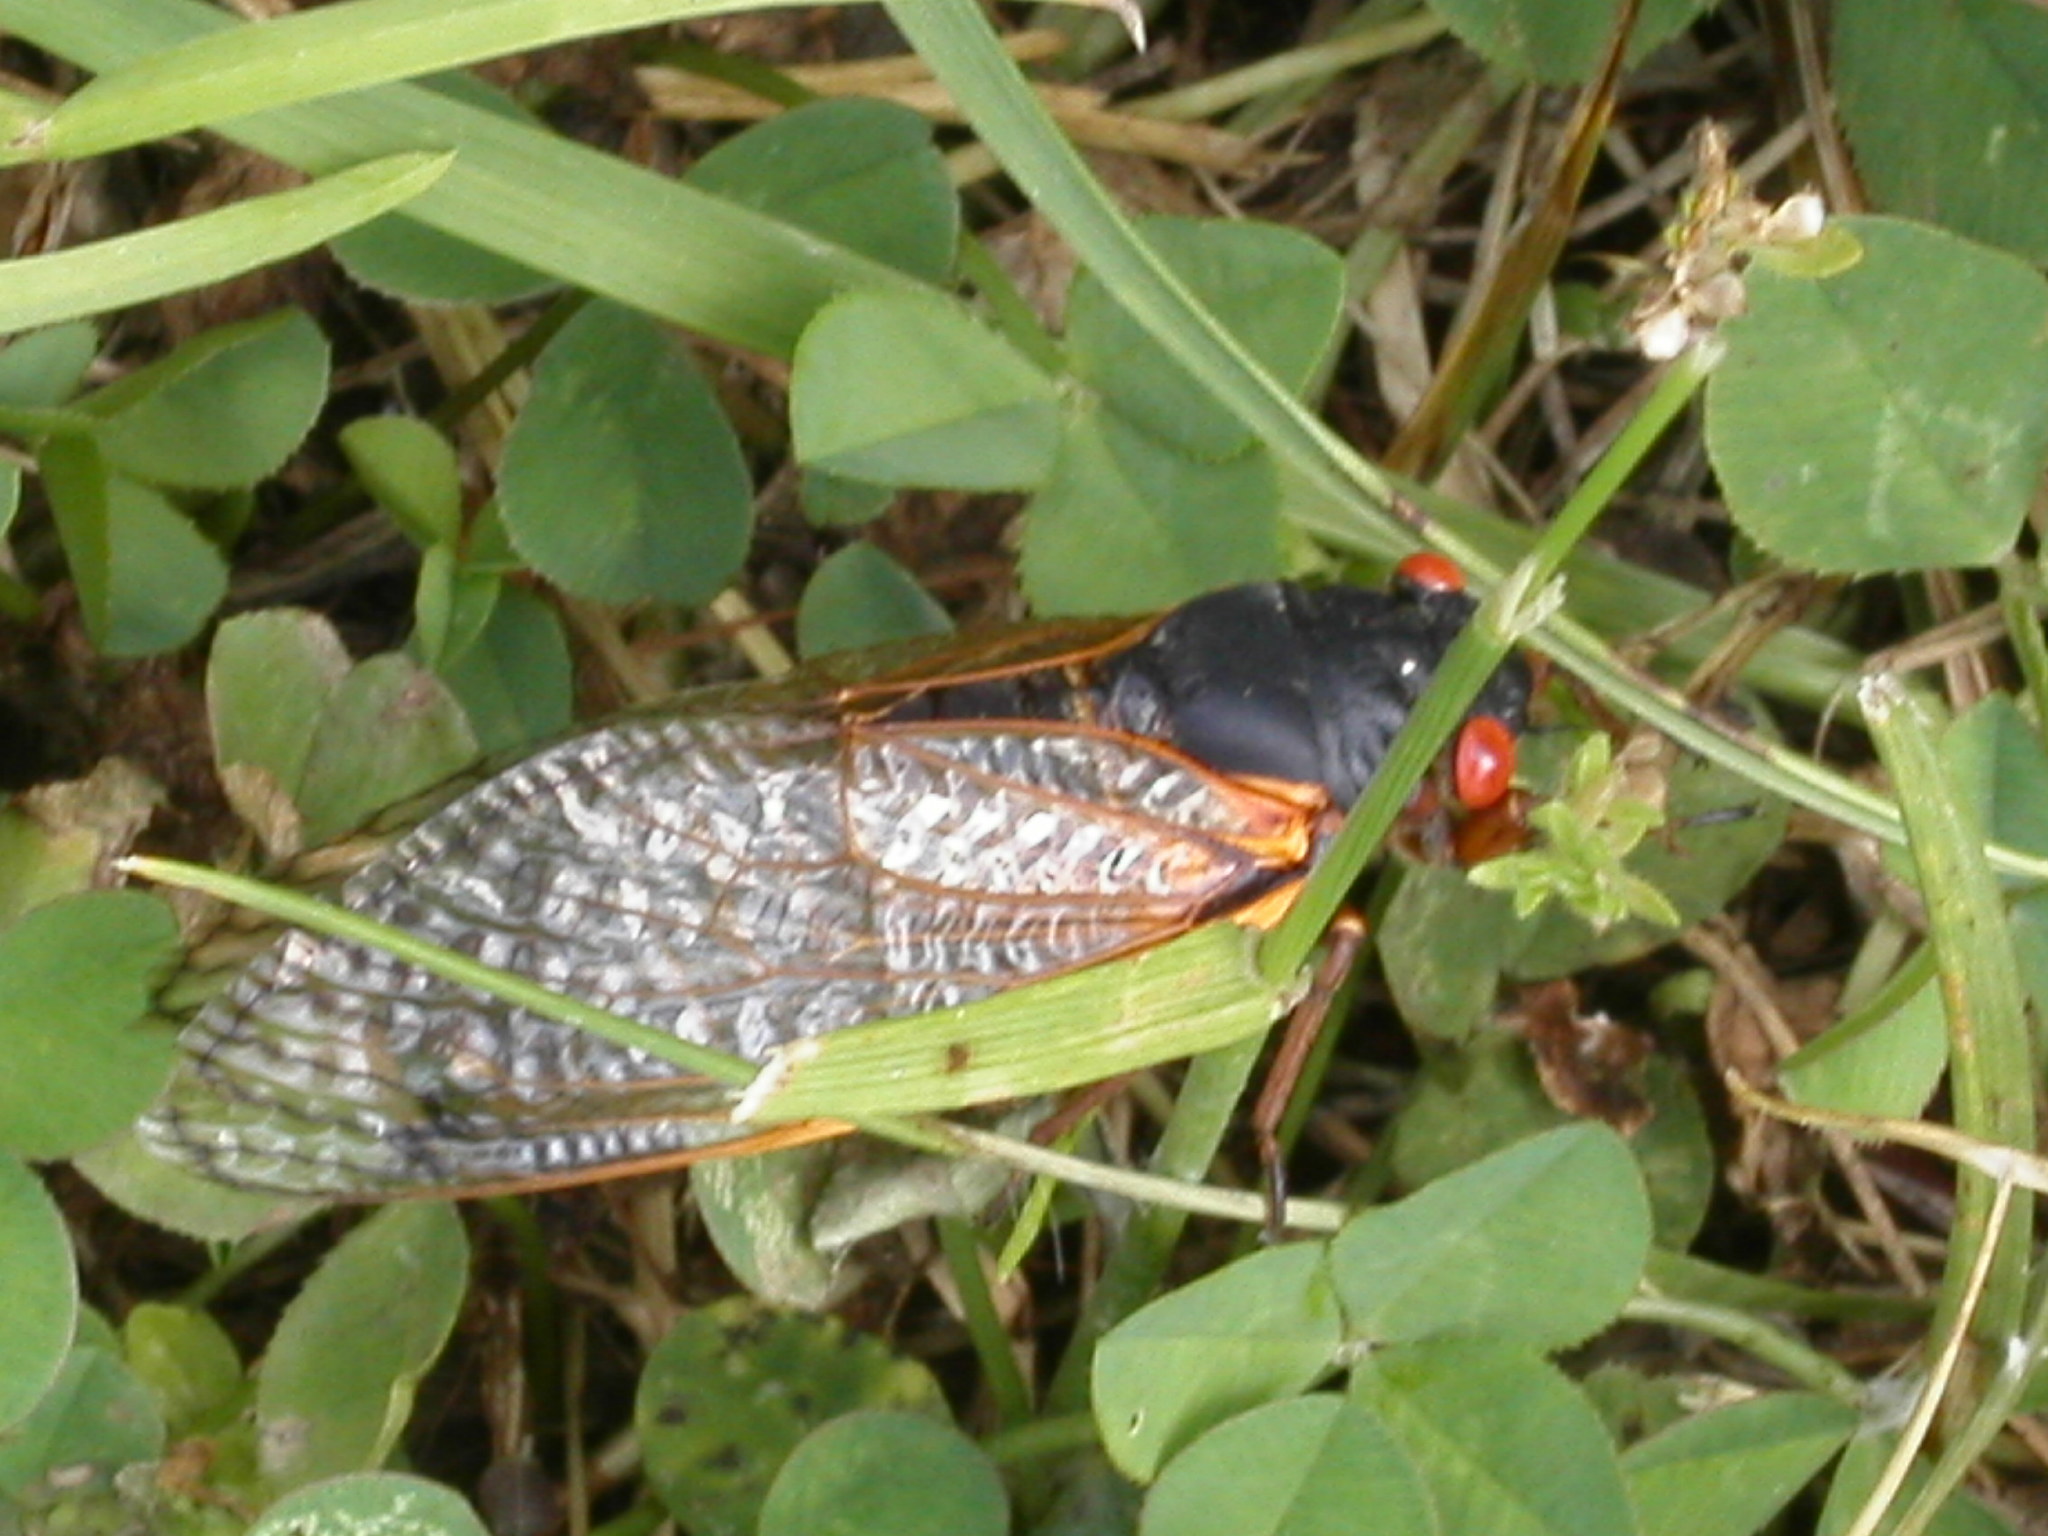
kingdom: Animalia
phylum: Arthropoda
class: Insecta
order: Hemiptera
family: Cicadidae
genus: Magicicada
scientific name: Magicicada septendecim
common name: Periodical cicada
